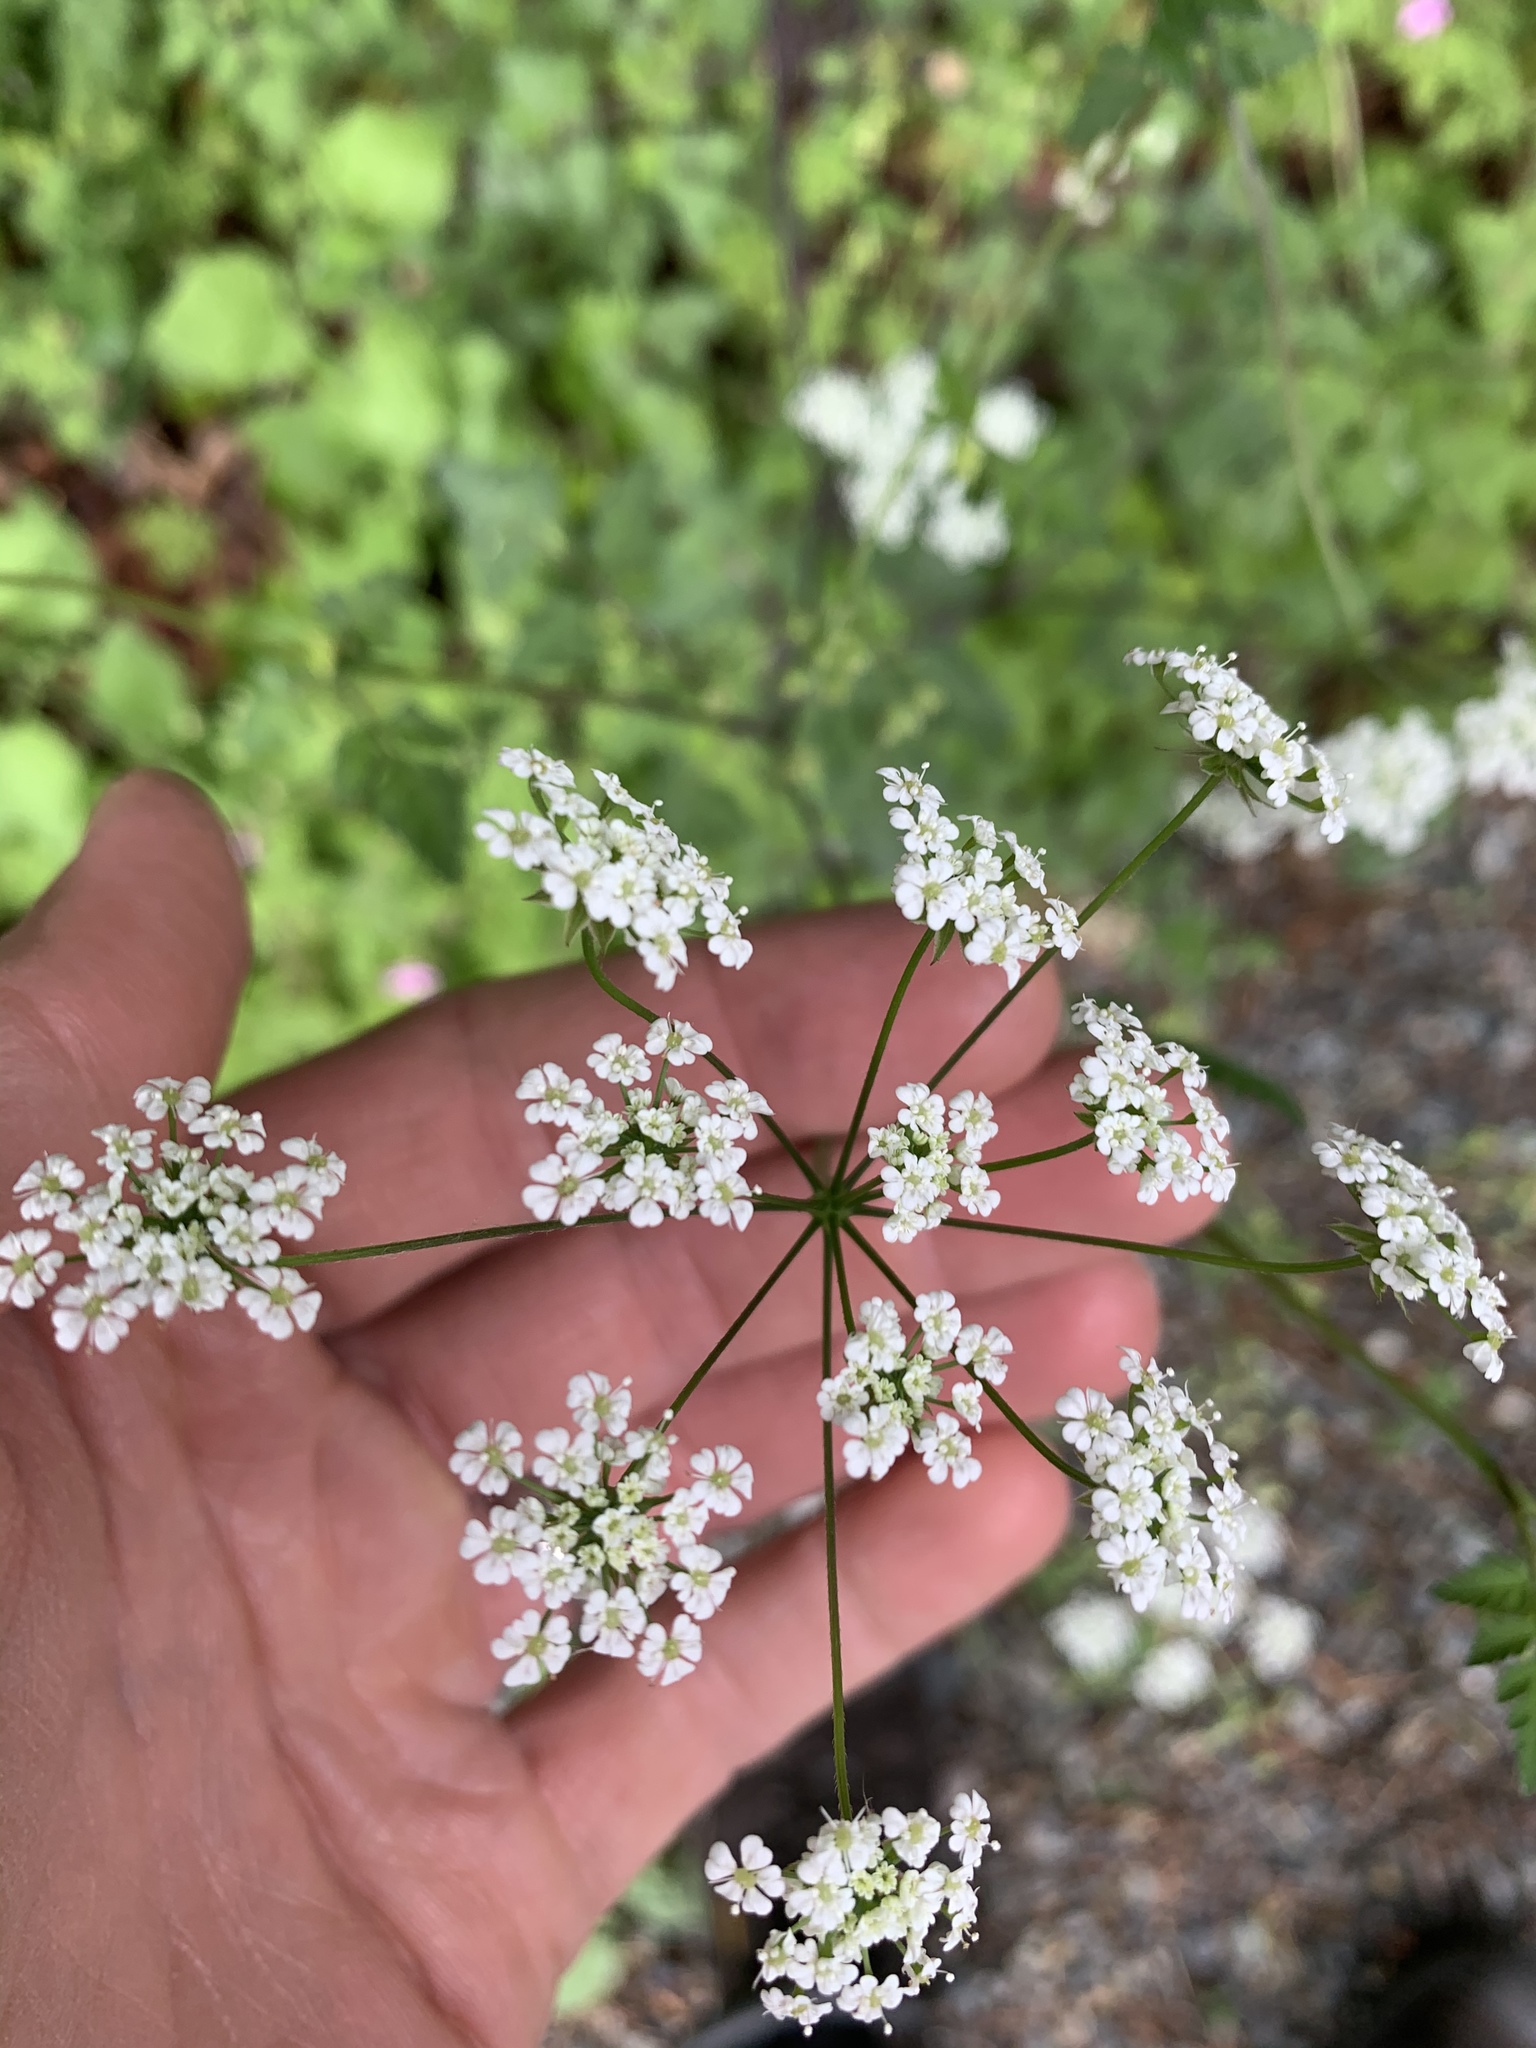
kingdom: Plantae
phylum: Tracheophyta
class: Magnoliopsida
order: Apiales
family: Apiaceae
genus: Chaerophyllum
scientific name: Chaerophyllum temulum
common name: Rough chervil
